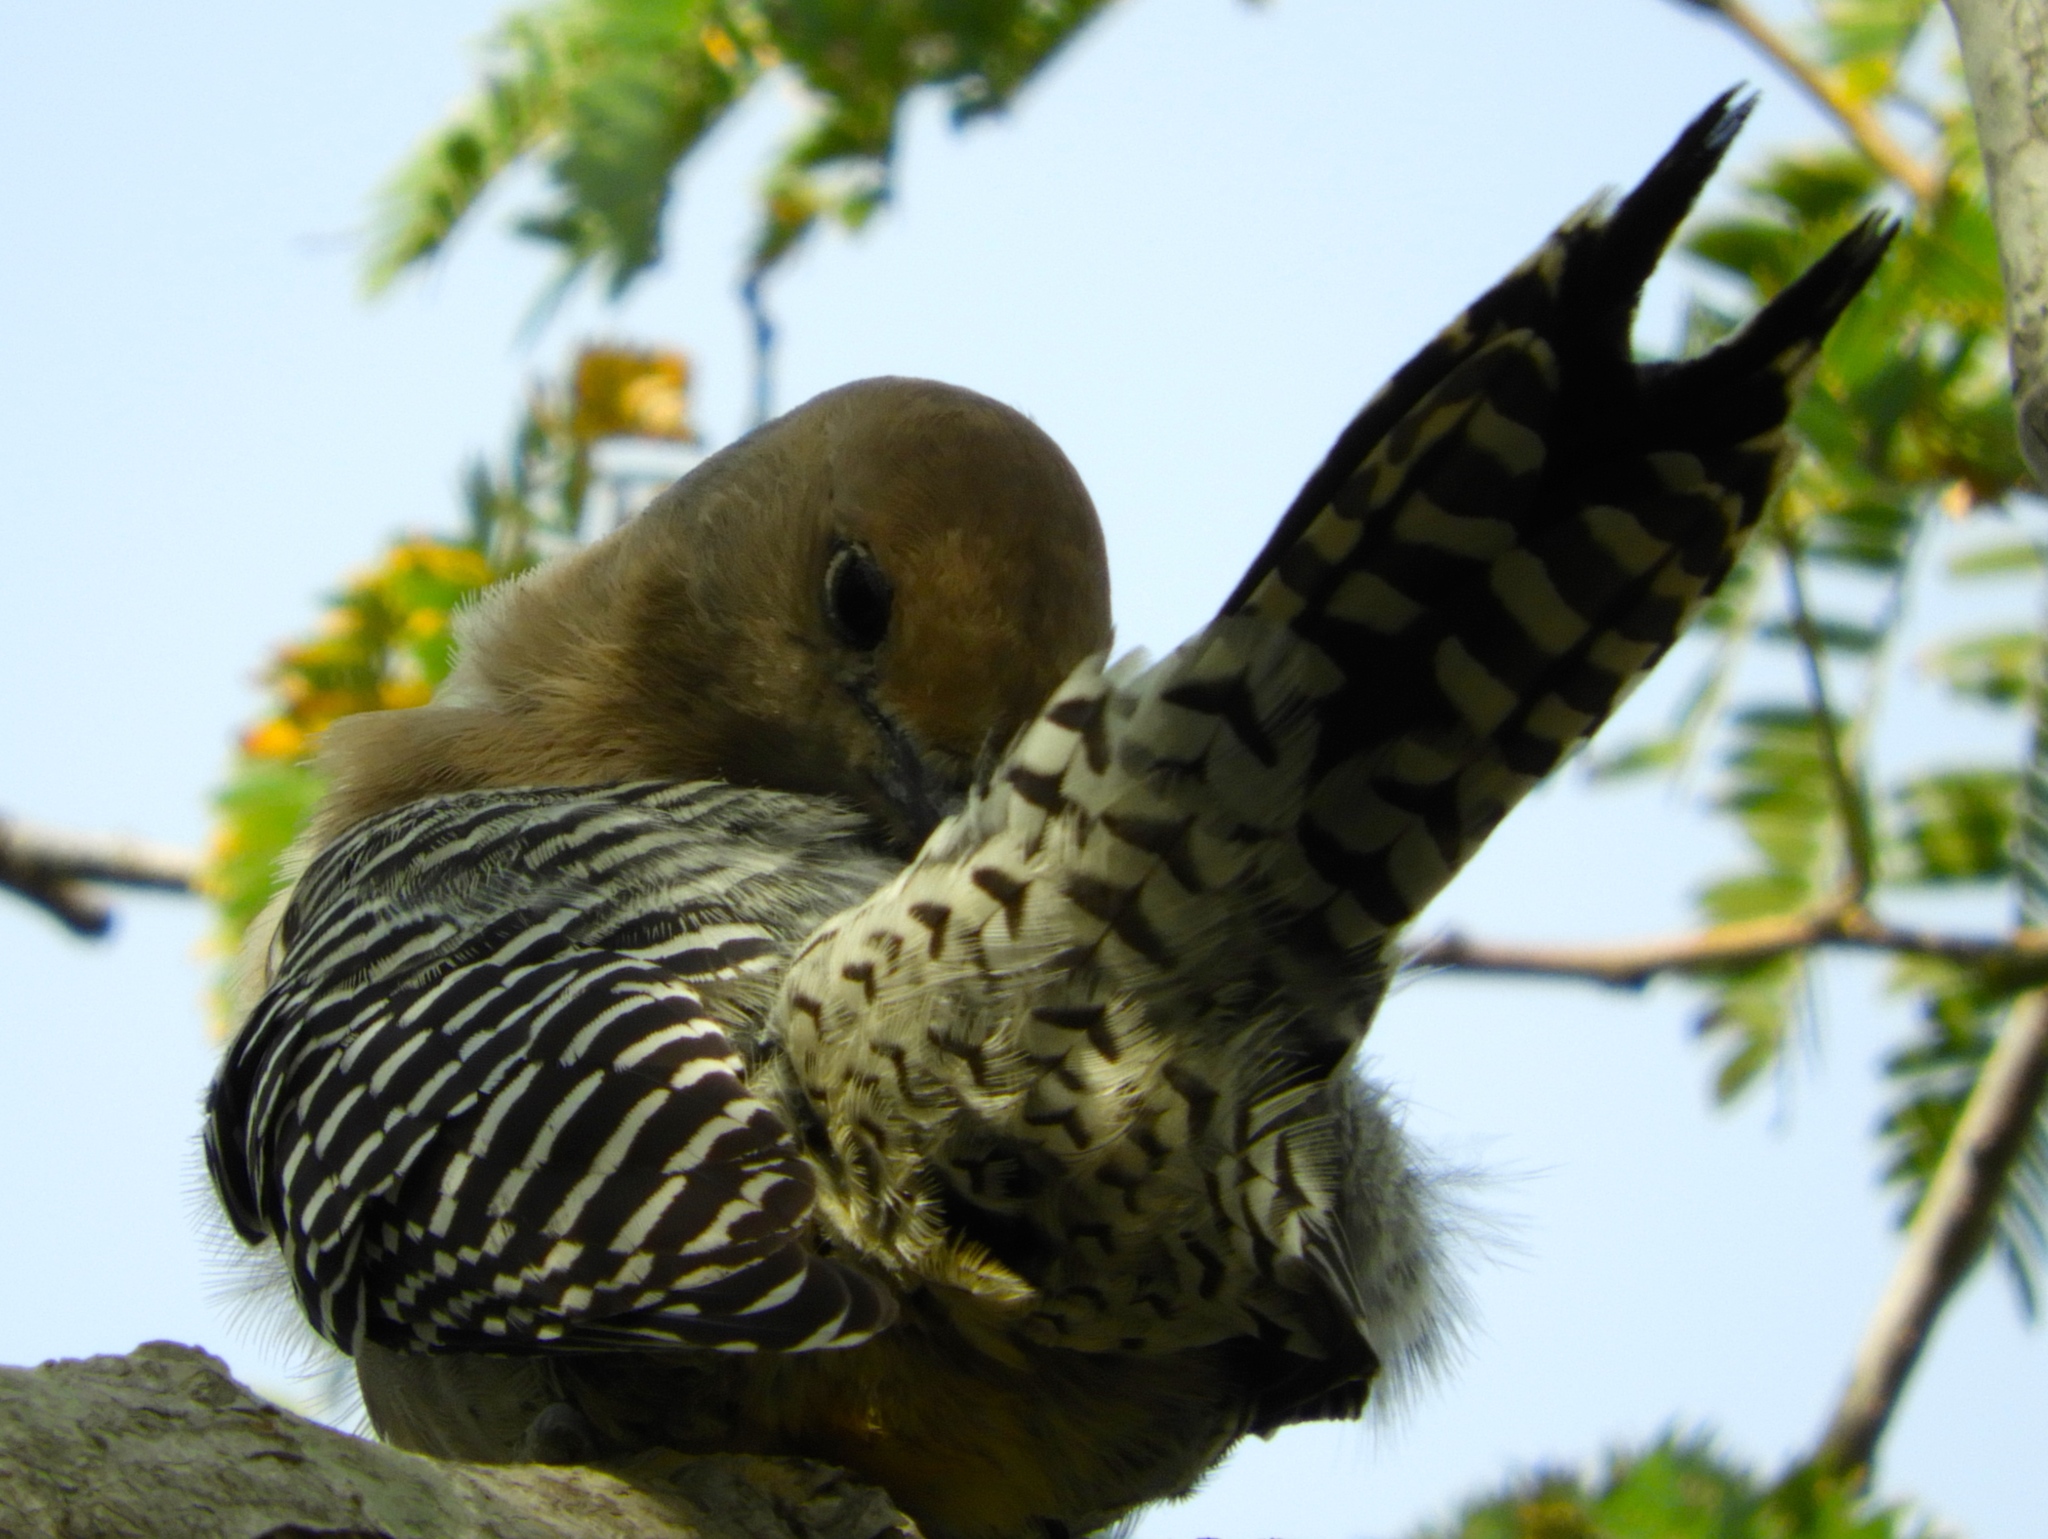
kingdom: Animalia
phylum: Chordata
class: Aves
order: Piciformes
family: Picidae
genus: Melanerpes
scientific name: Melanerpes uropygialis
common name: Gila woodpecker
